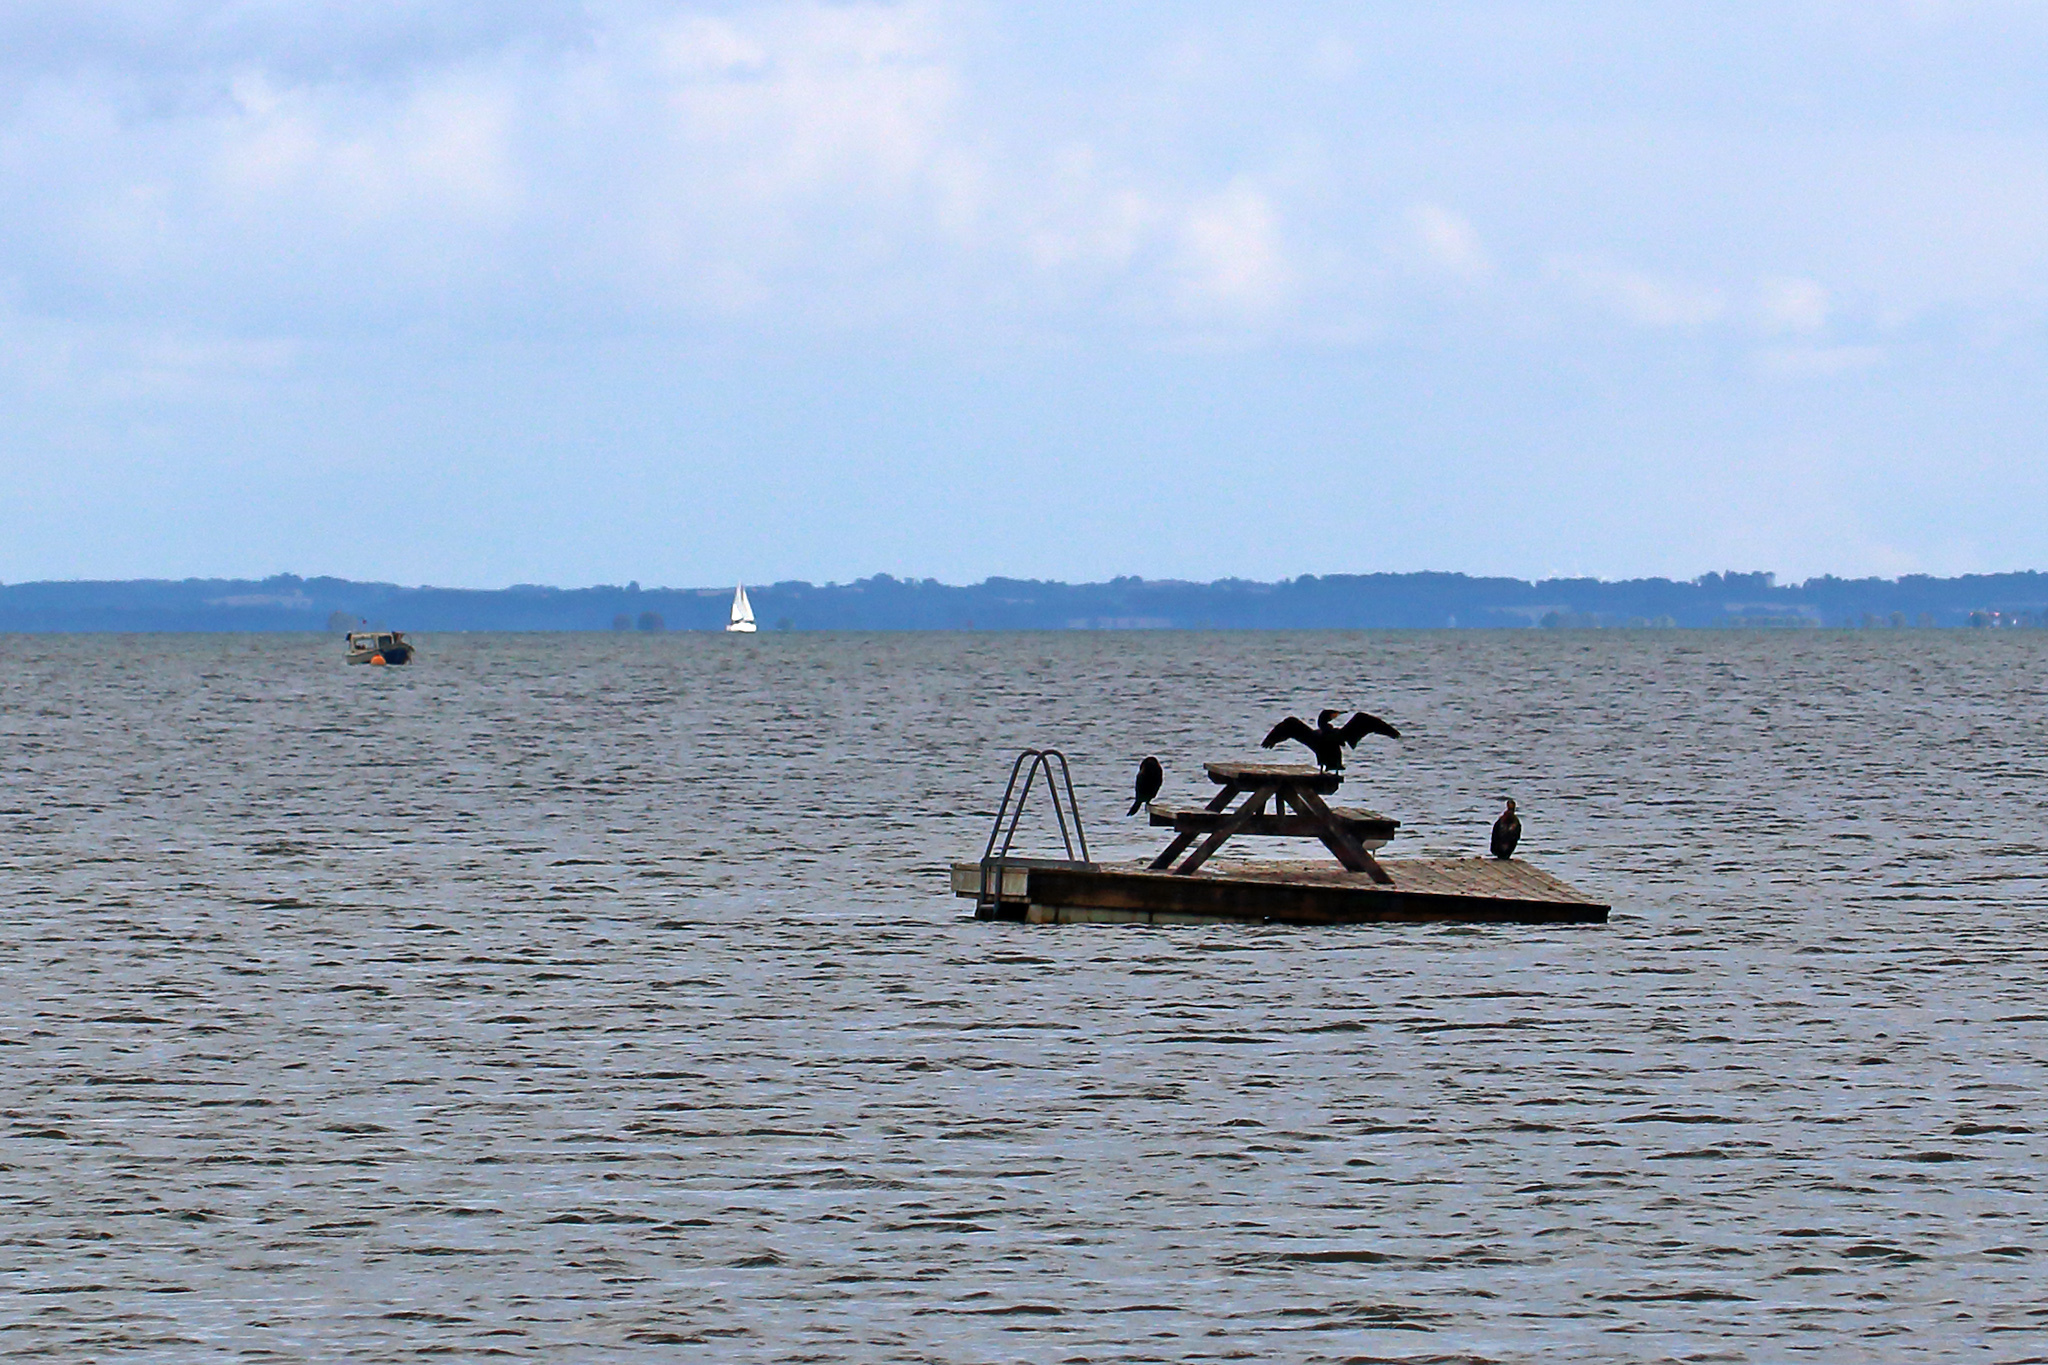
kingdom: Animalia
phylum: Chordata
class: Aves
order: Suliformes
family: Phalacrocoracidae
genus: Phalacrocorax
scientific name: Phalacrocorax carbo
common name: Great cormorant
